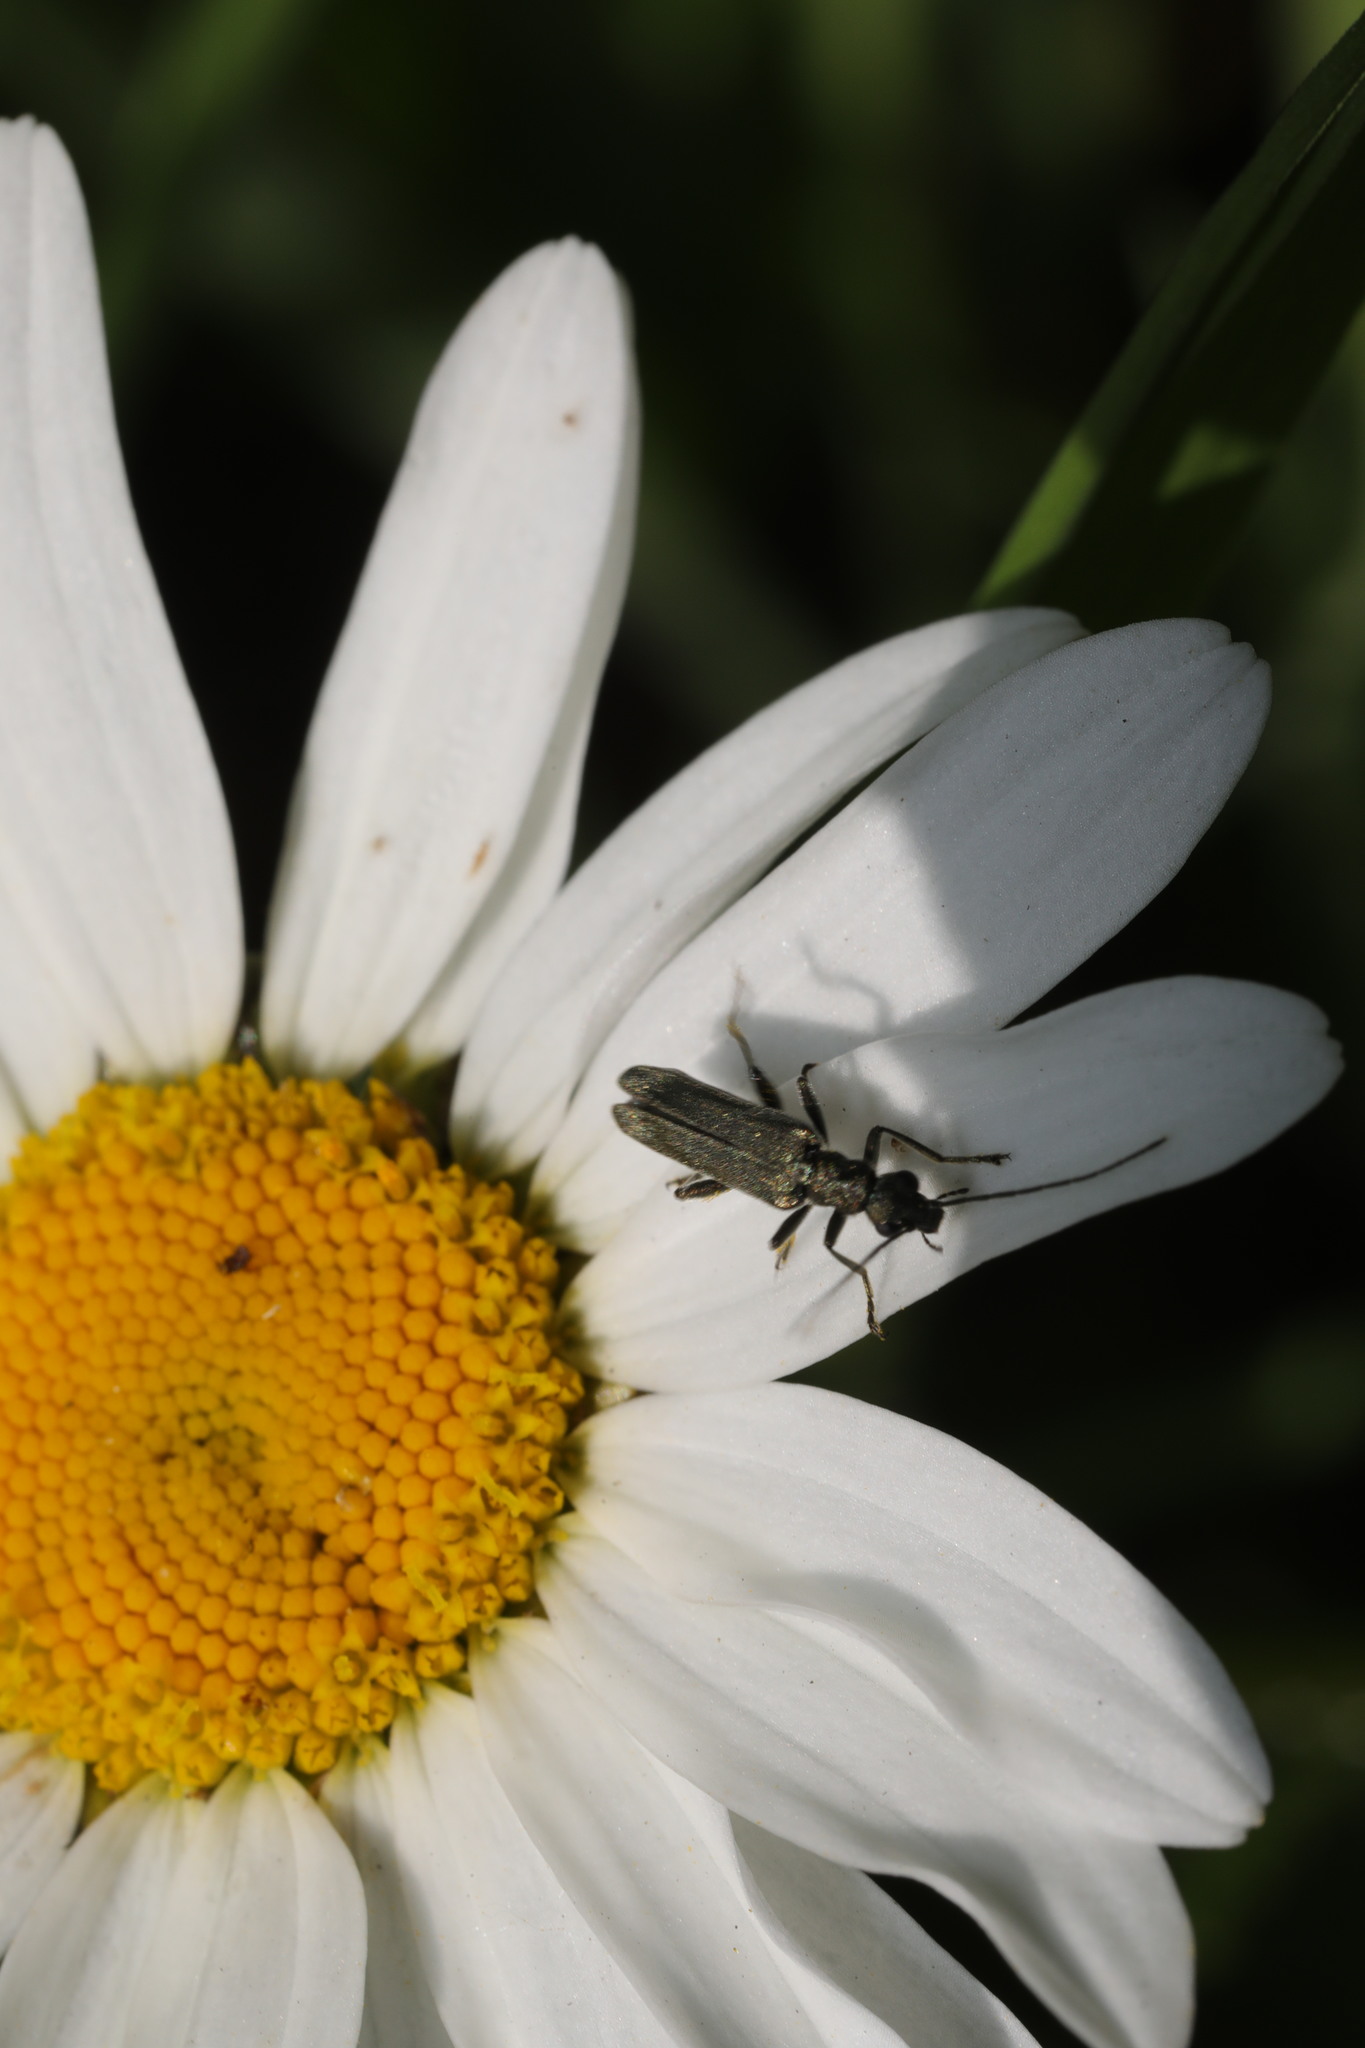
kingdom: Animalia
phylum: Arthropoda
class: Insecta
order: Coleoptera
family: Oedemeridae
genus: Oedemera
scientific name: Oedemera lurida
